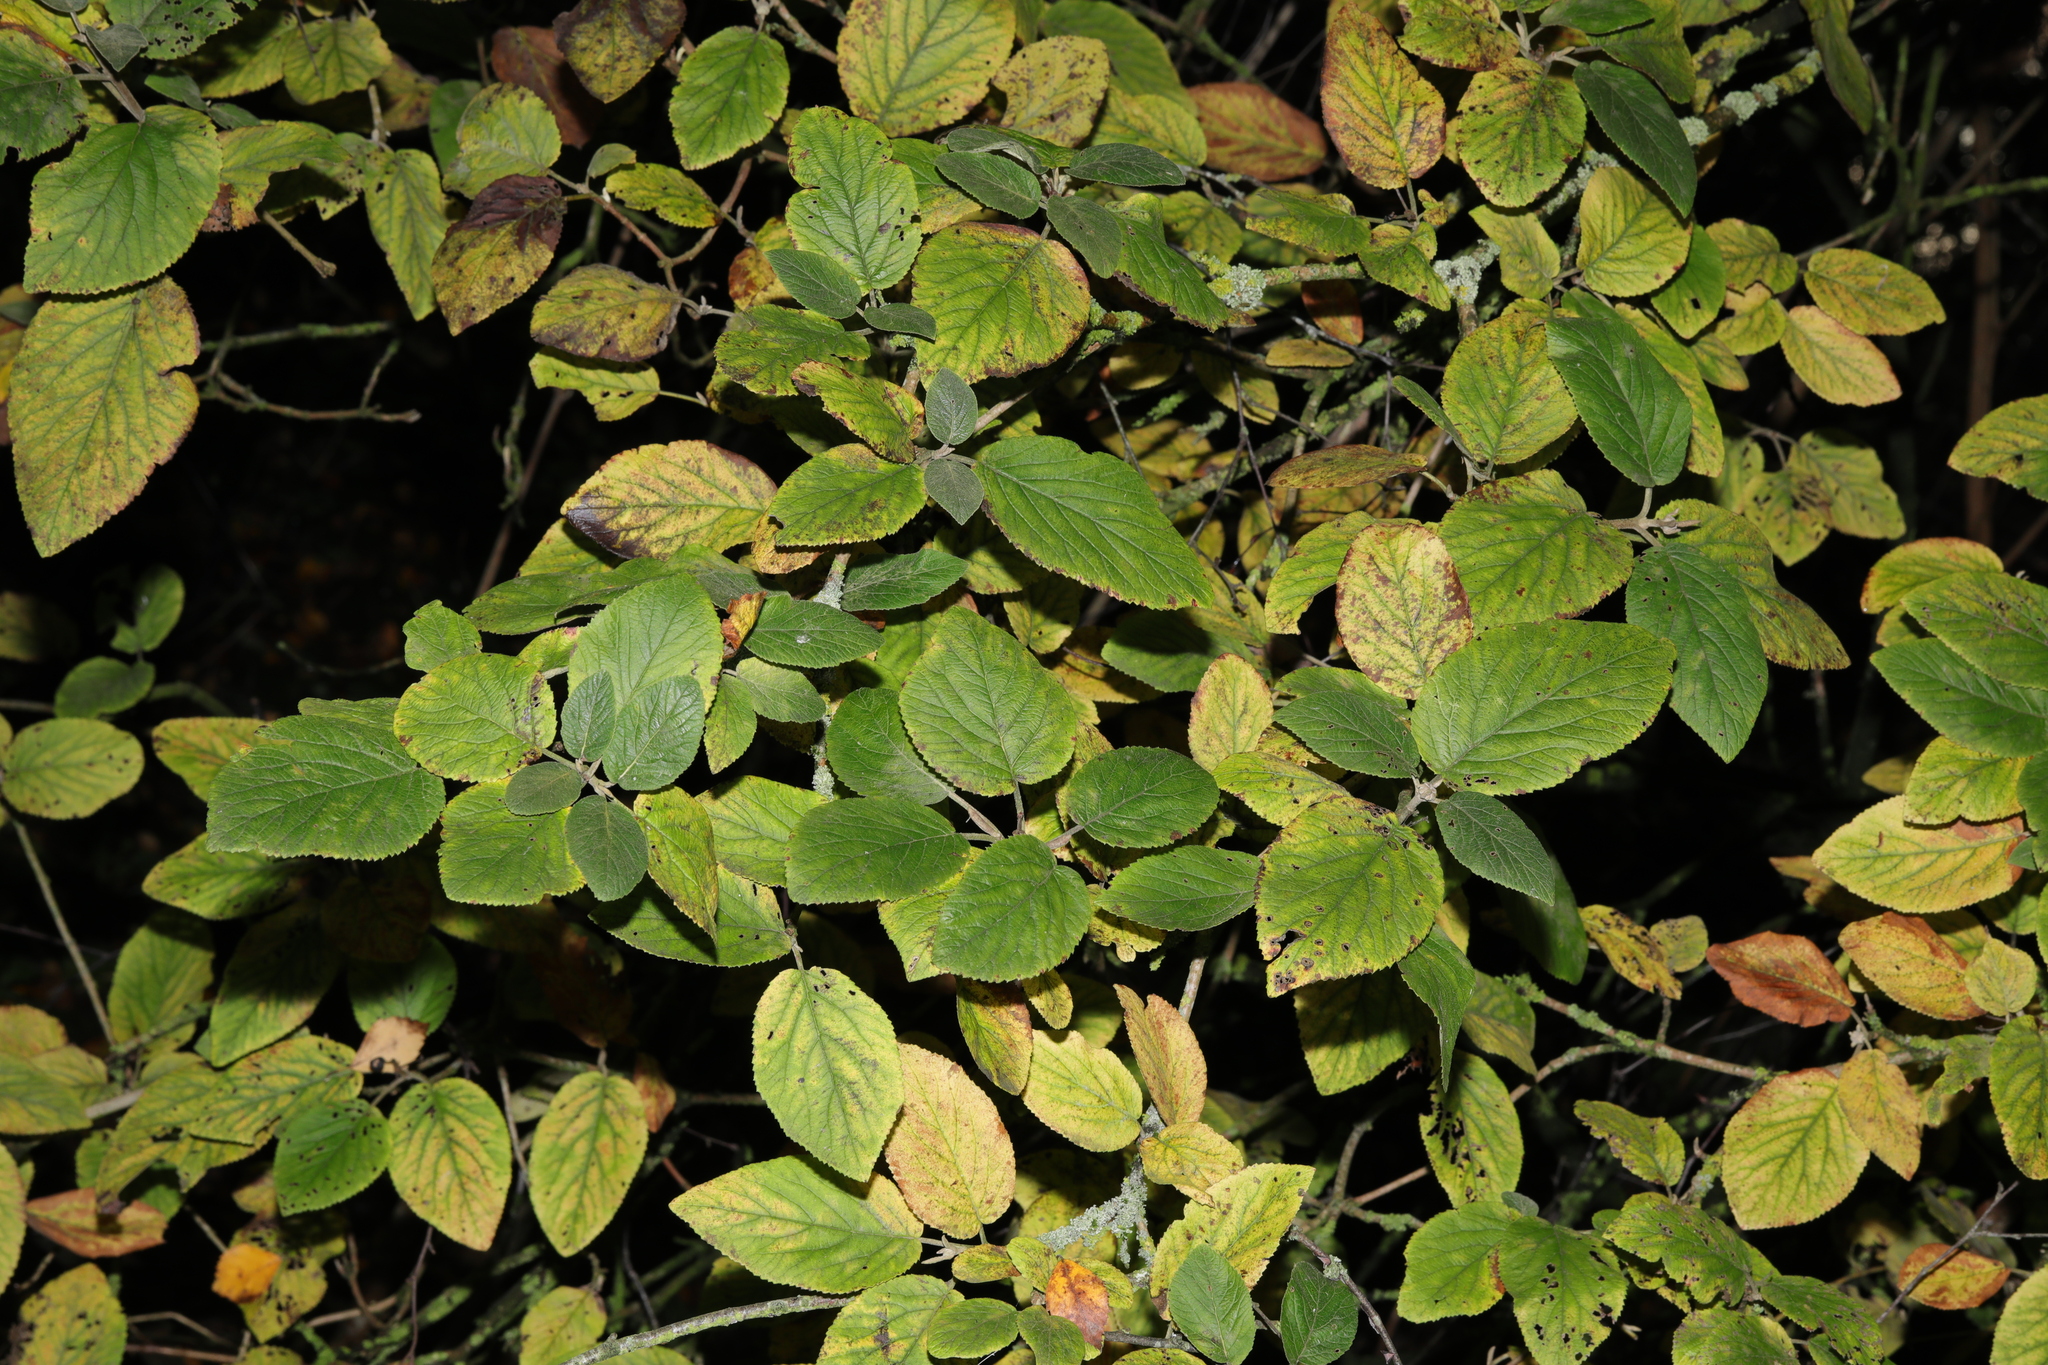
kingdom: Plantae
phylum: Tracheophyta
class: Magnoliopsida
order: Dipsacales
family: Viburnaceae
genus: Viburnum
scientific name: Viburnum lantana
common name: Wayfaring tree
